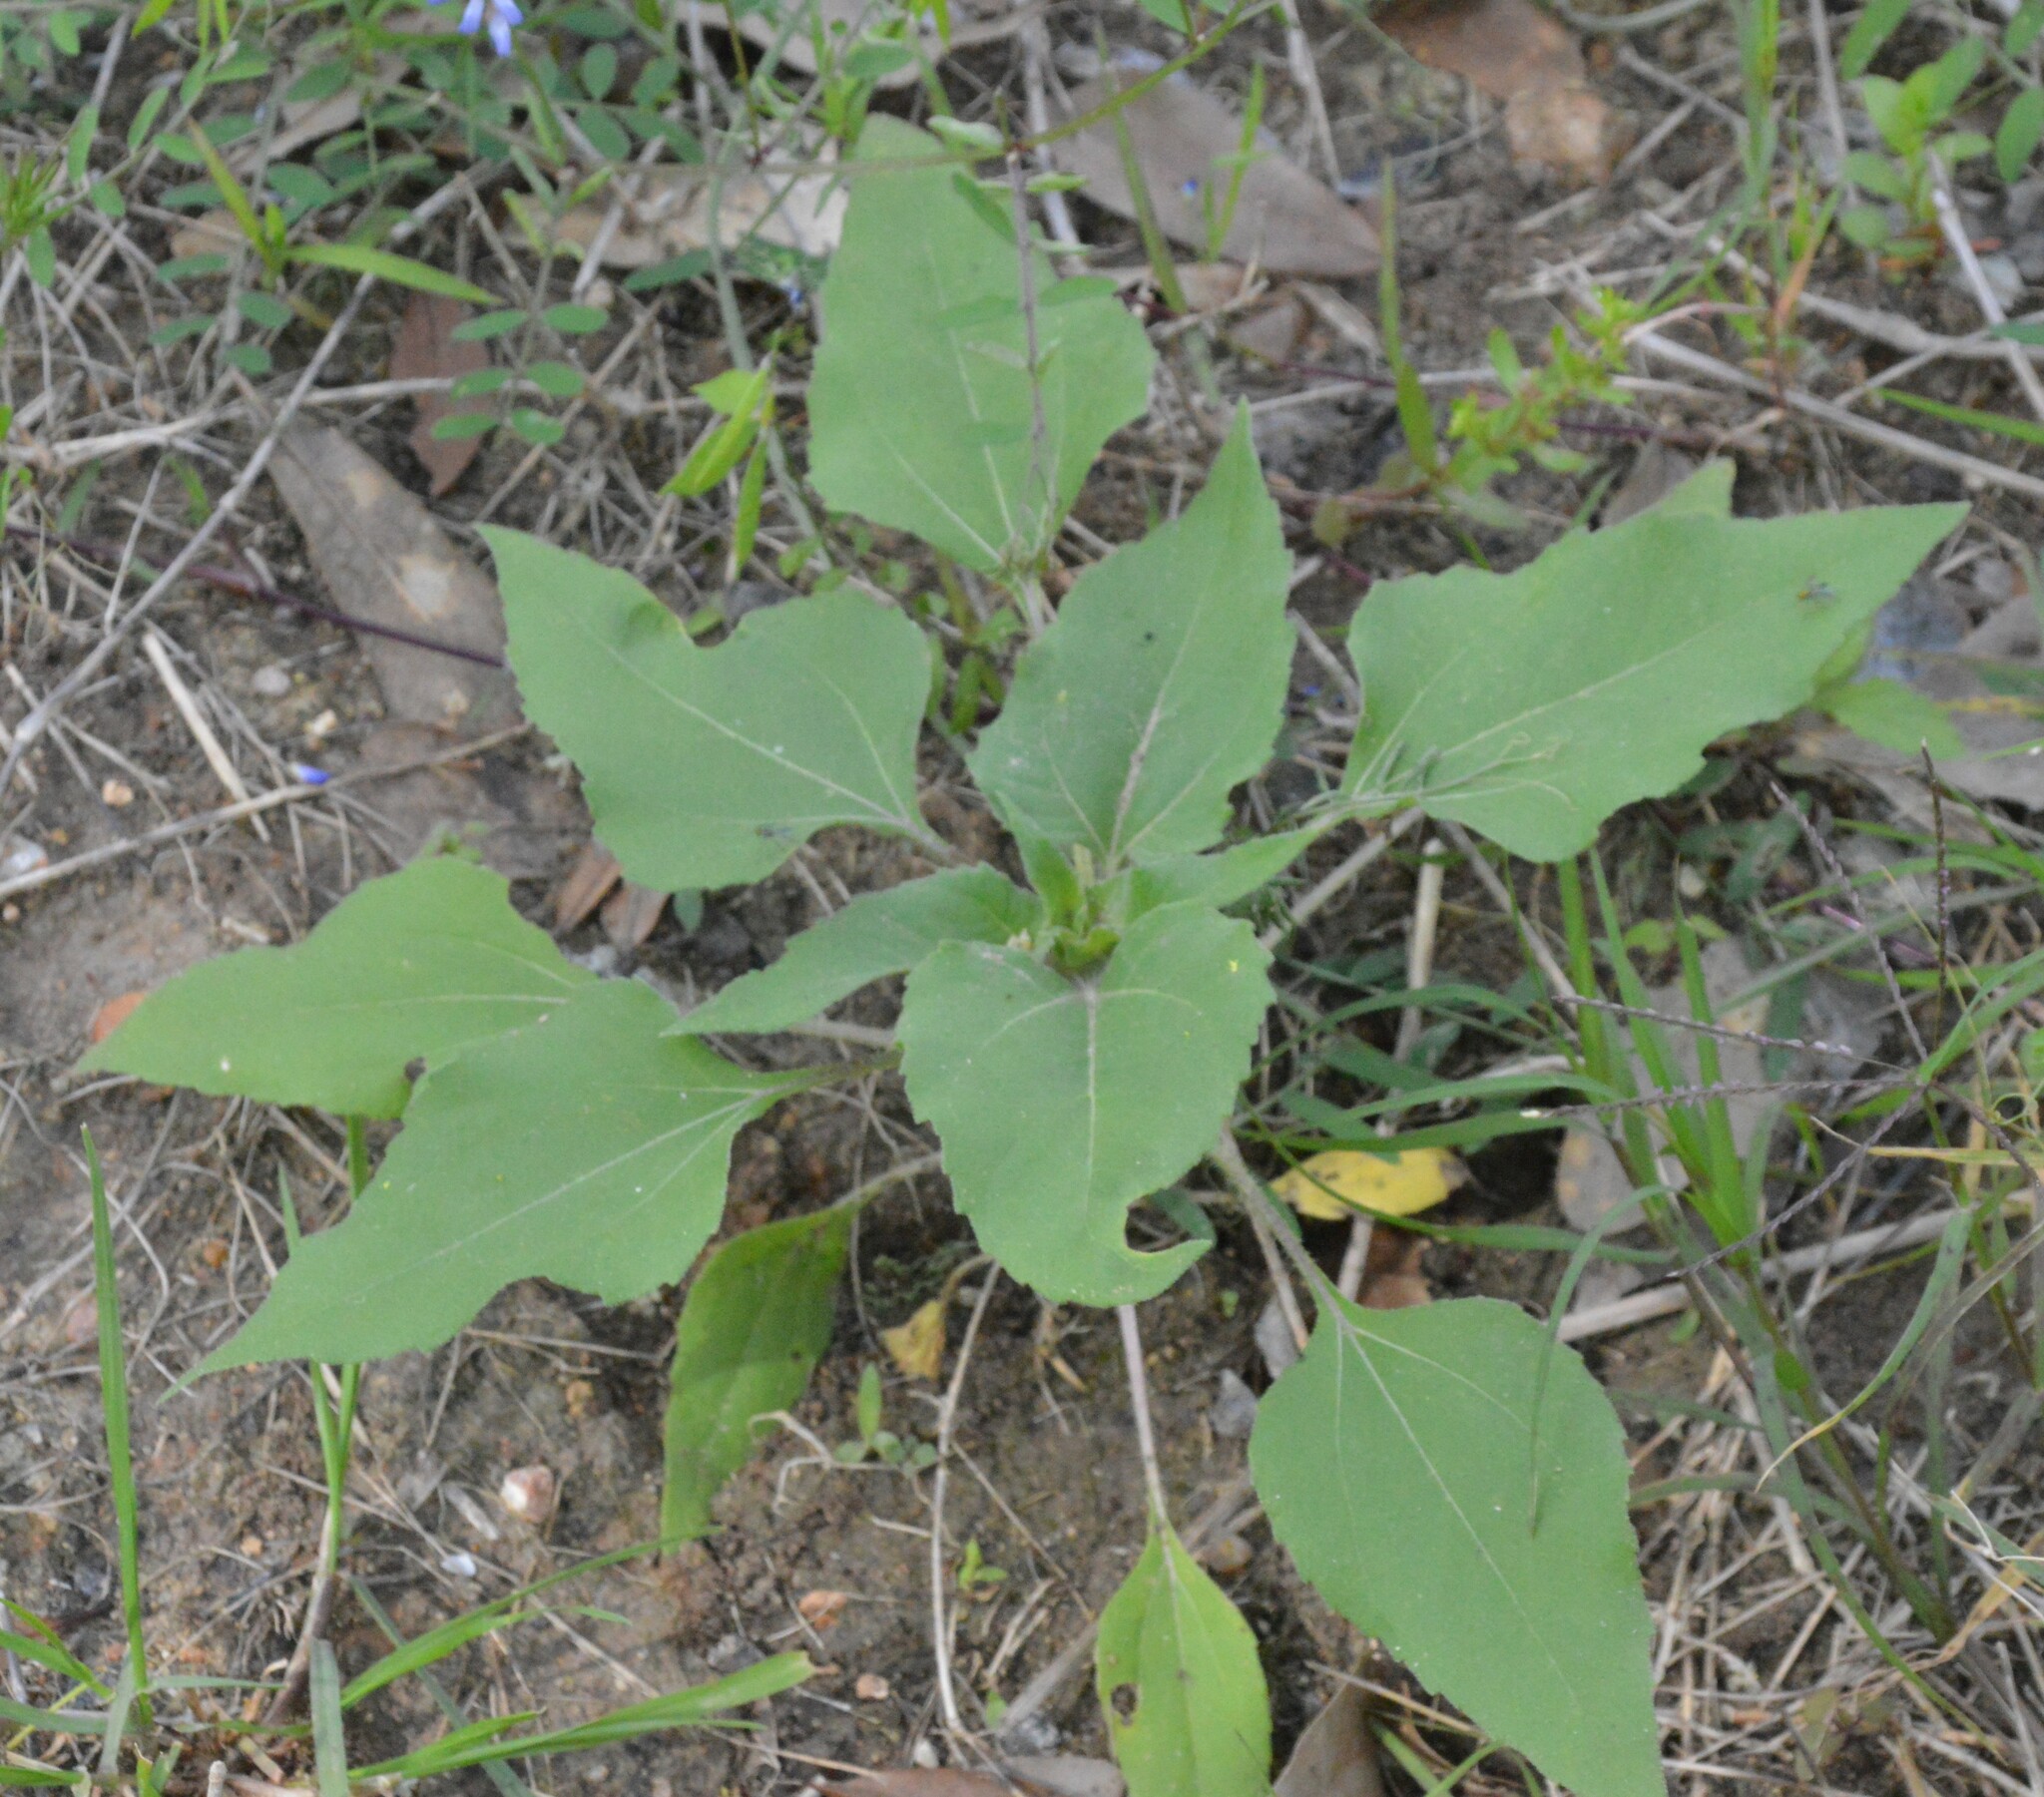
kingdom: Plantae
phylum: Tracheophyta
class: Magnoliopsida
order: Asterales
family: Asteraceae
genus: Helianthus
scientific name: Helianthus annuus
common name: Sunflower
